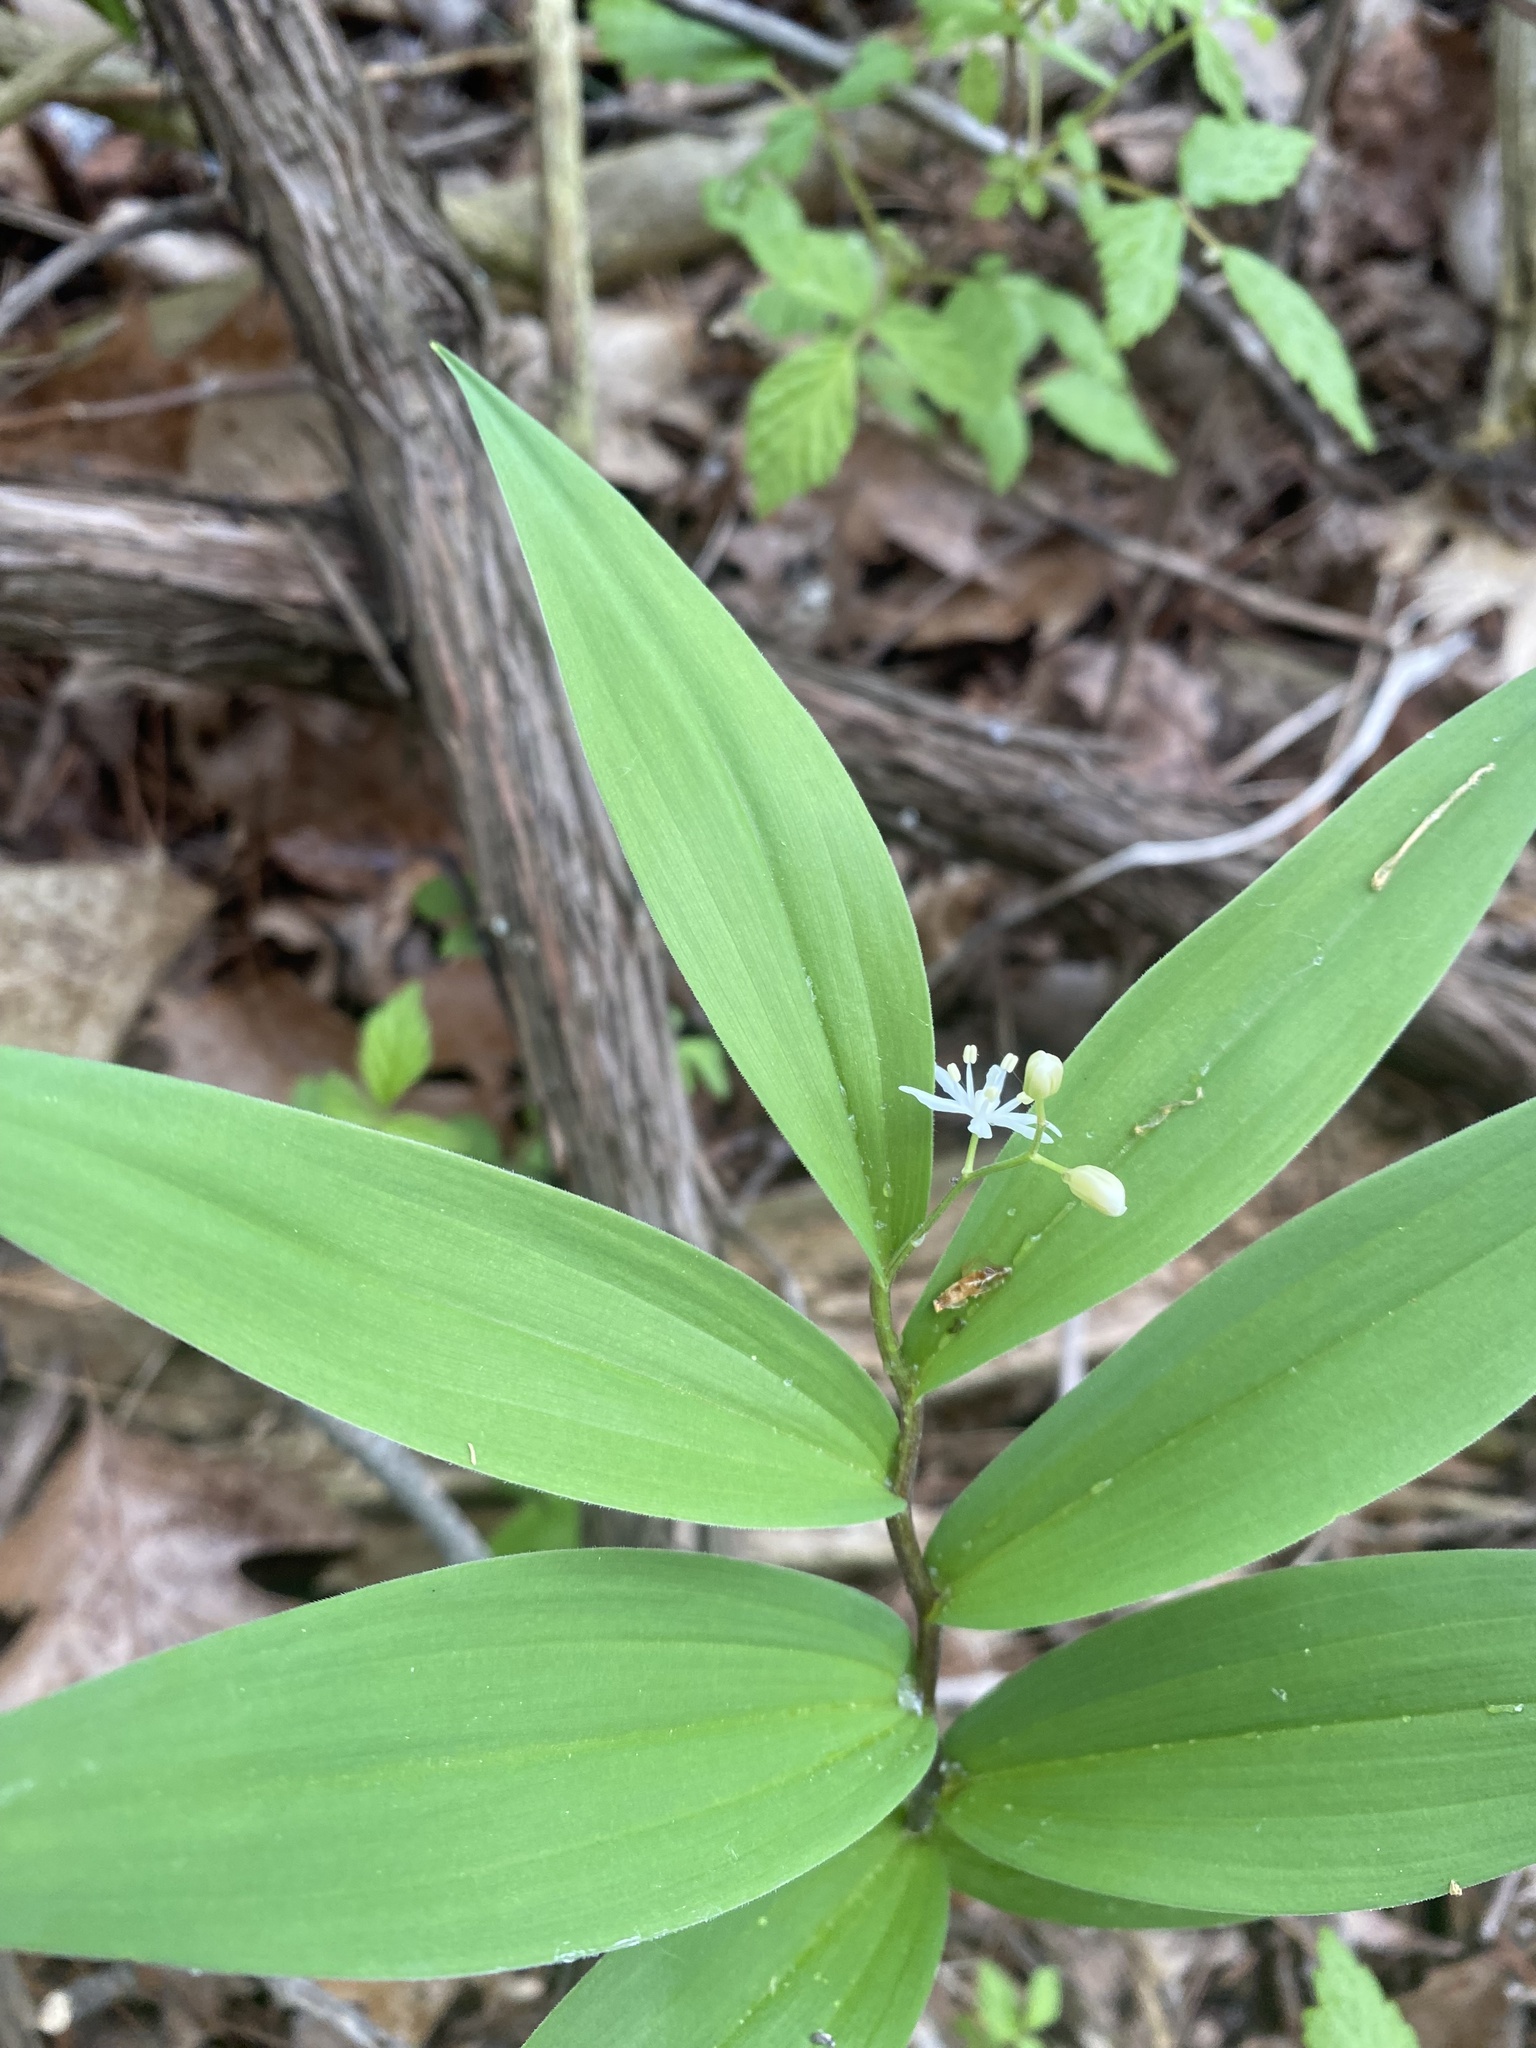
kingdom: Plantae
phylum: Tracheophyta
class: Liliopsida
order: Asparagales
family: Asparagaceae
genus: Maianthemum
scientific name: Maianthemum stellatum
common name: Little false solomon's seal
